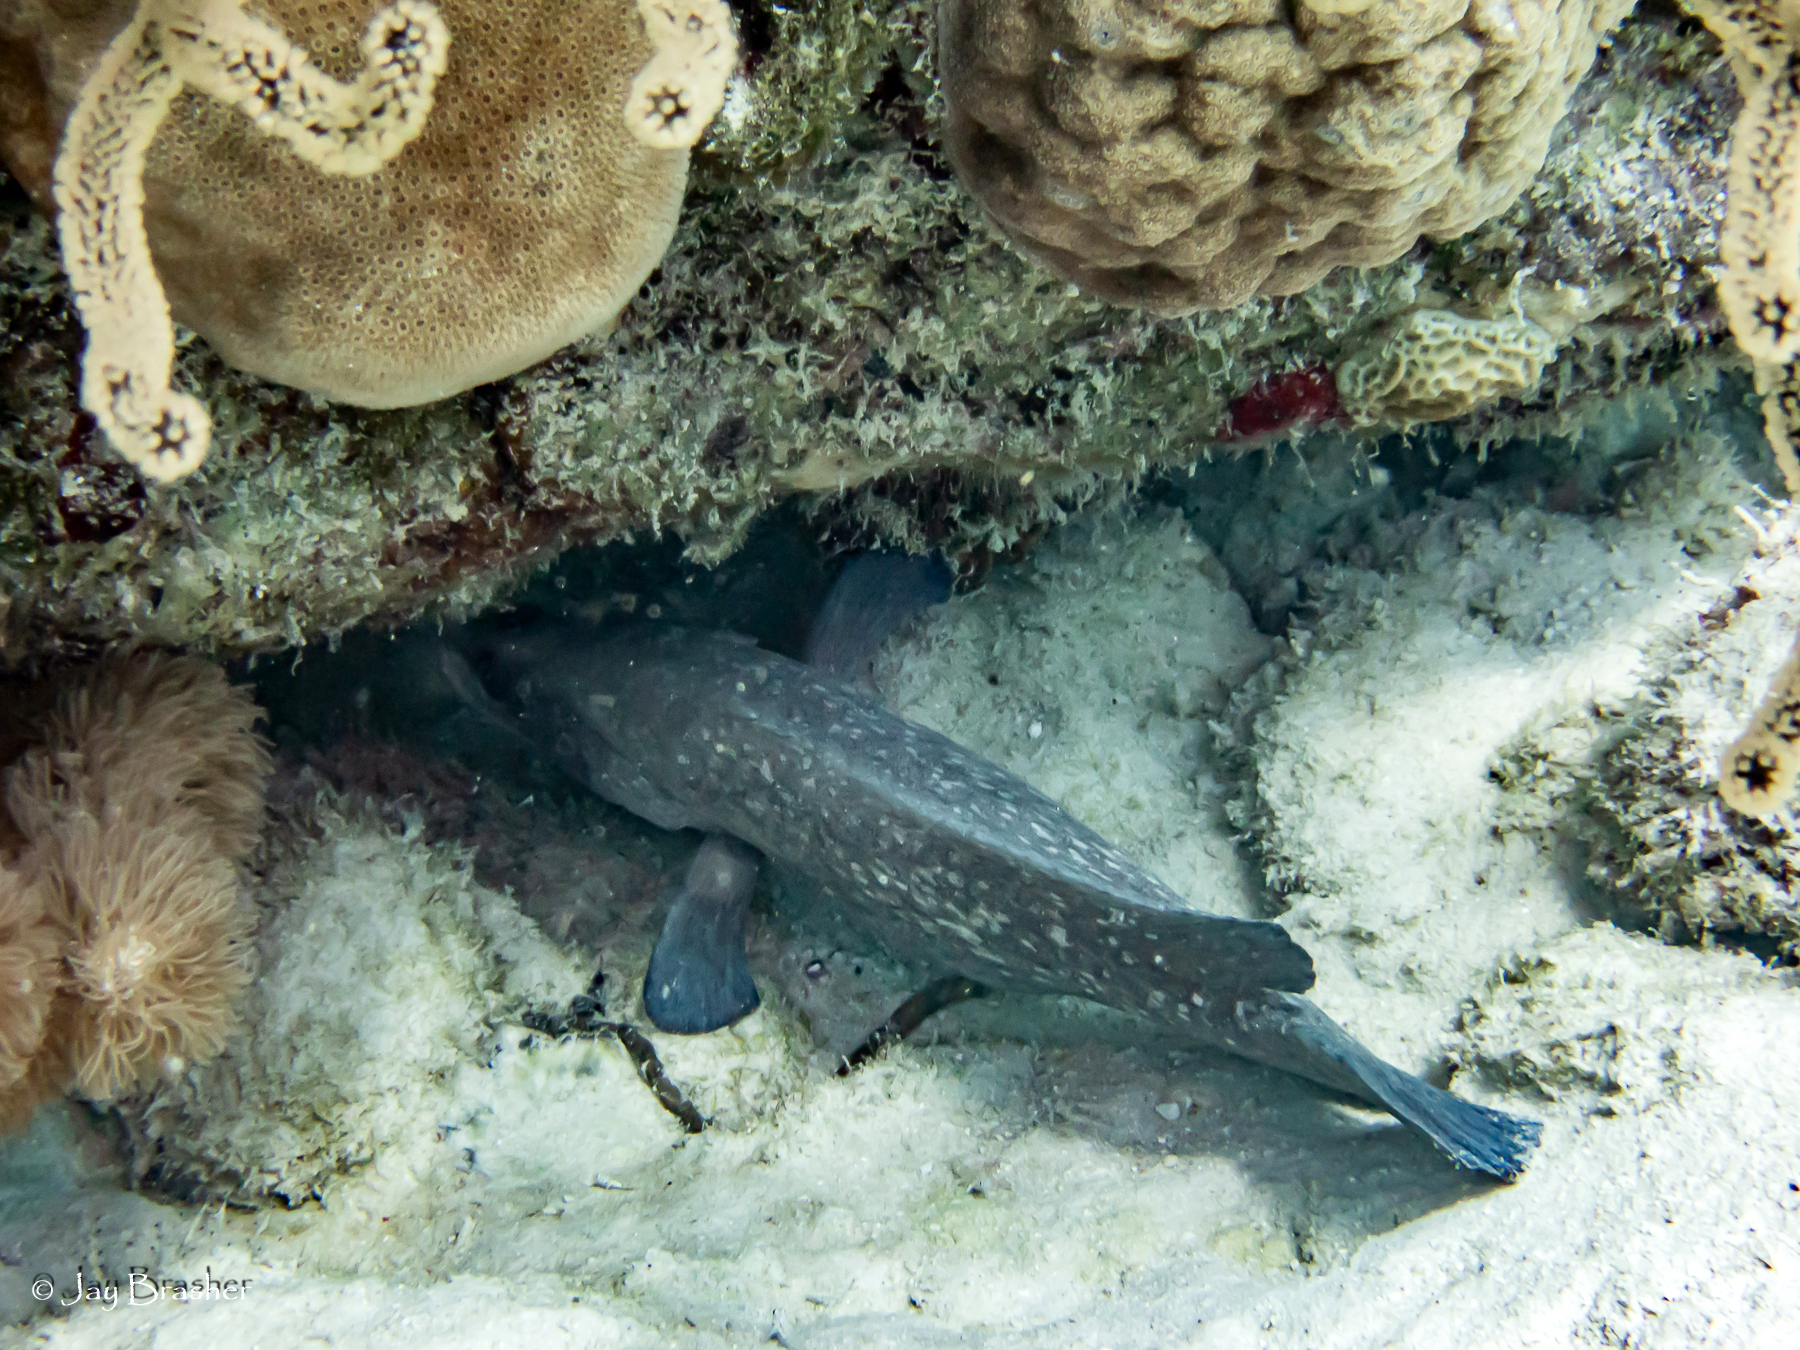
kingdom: Animalia
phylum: Cnidaria
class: Anthozoa
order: Scleractinia
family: Poritidae
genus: Porites
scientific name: Porites astreoides
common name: Mustard hill coral
